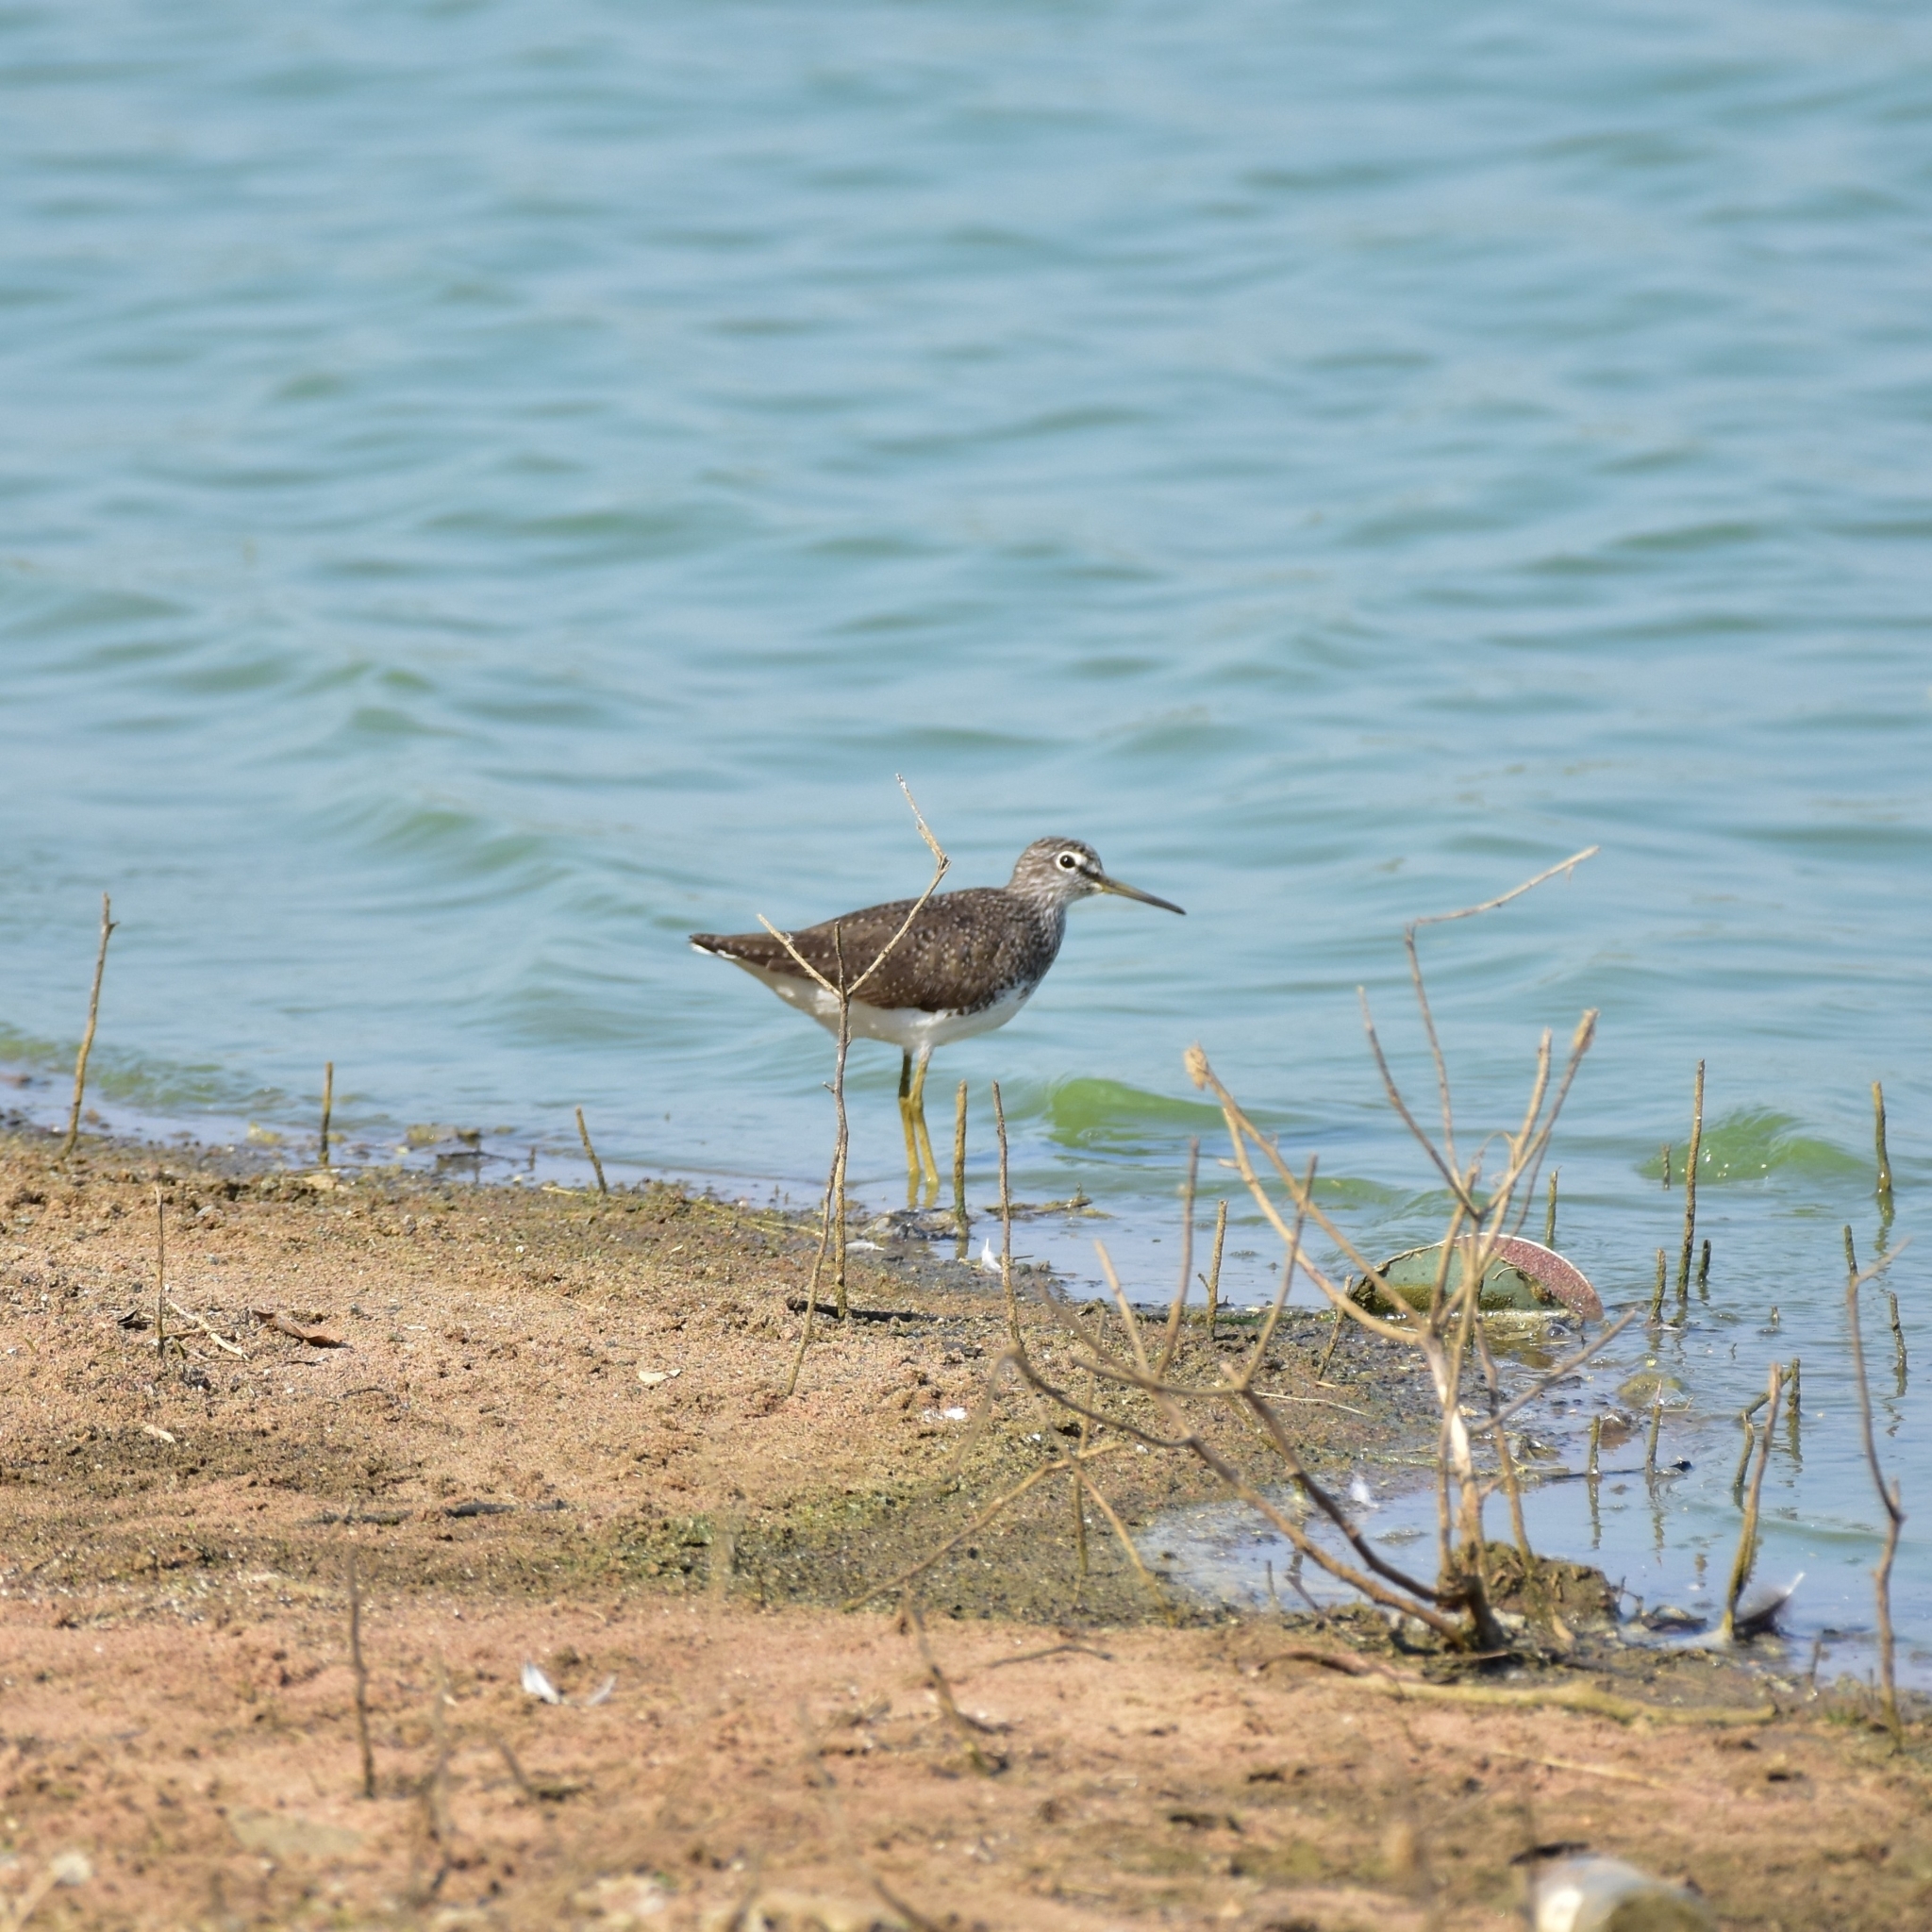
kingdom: Animalia
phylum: Chordata
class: Aves
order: Charadriiformes
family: Scolopacidae
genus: Tringa
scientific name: Tringa ochropus
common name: Green sandpiper
